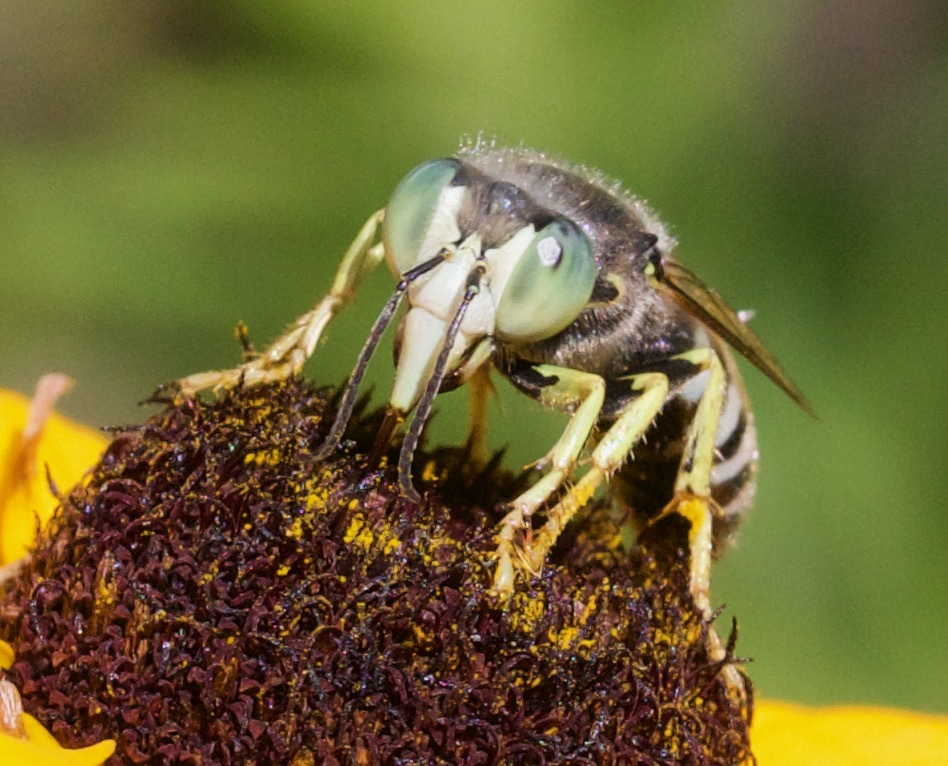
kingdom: Animalia
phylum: Arthropoda
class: Insecta
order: Hymenoptera
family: Crabronidae
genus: Bembix
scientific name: Bembix americana
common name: American sand wasp
